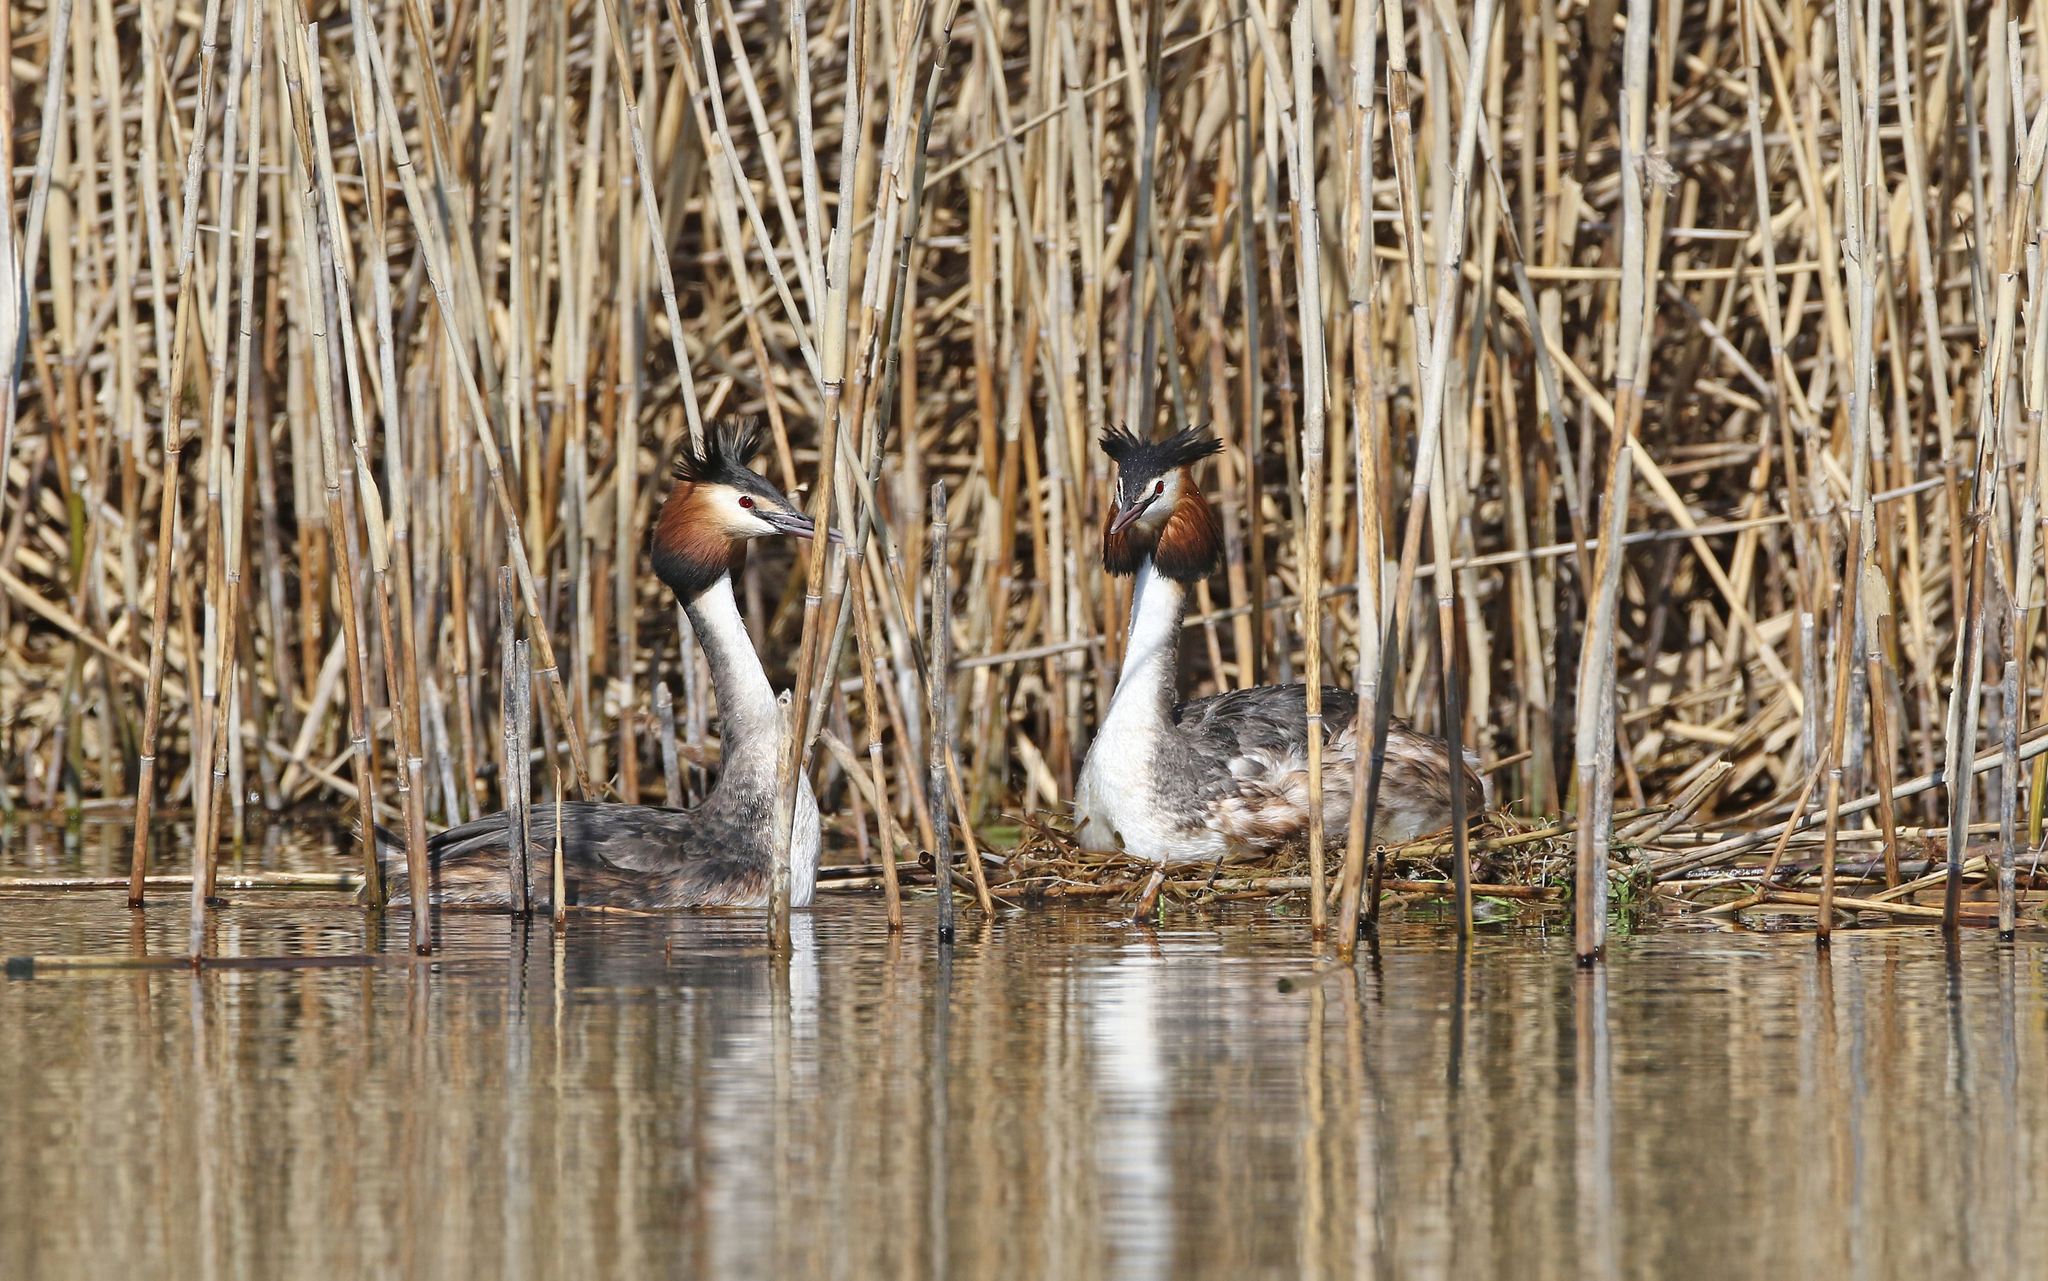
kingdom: Animalia
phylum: Chordata
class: Aves
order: Podicipediformes
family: Podicipedidae
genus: Podiceps
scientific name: Podiceps cristatus
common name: Great crested grebe
